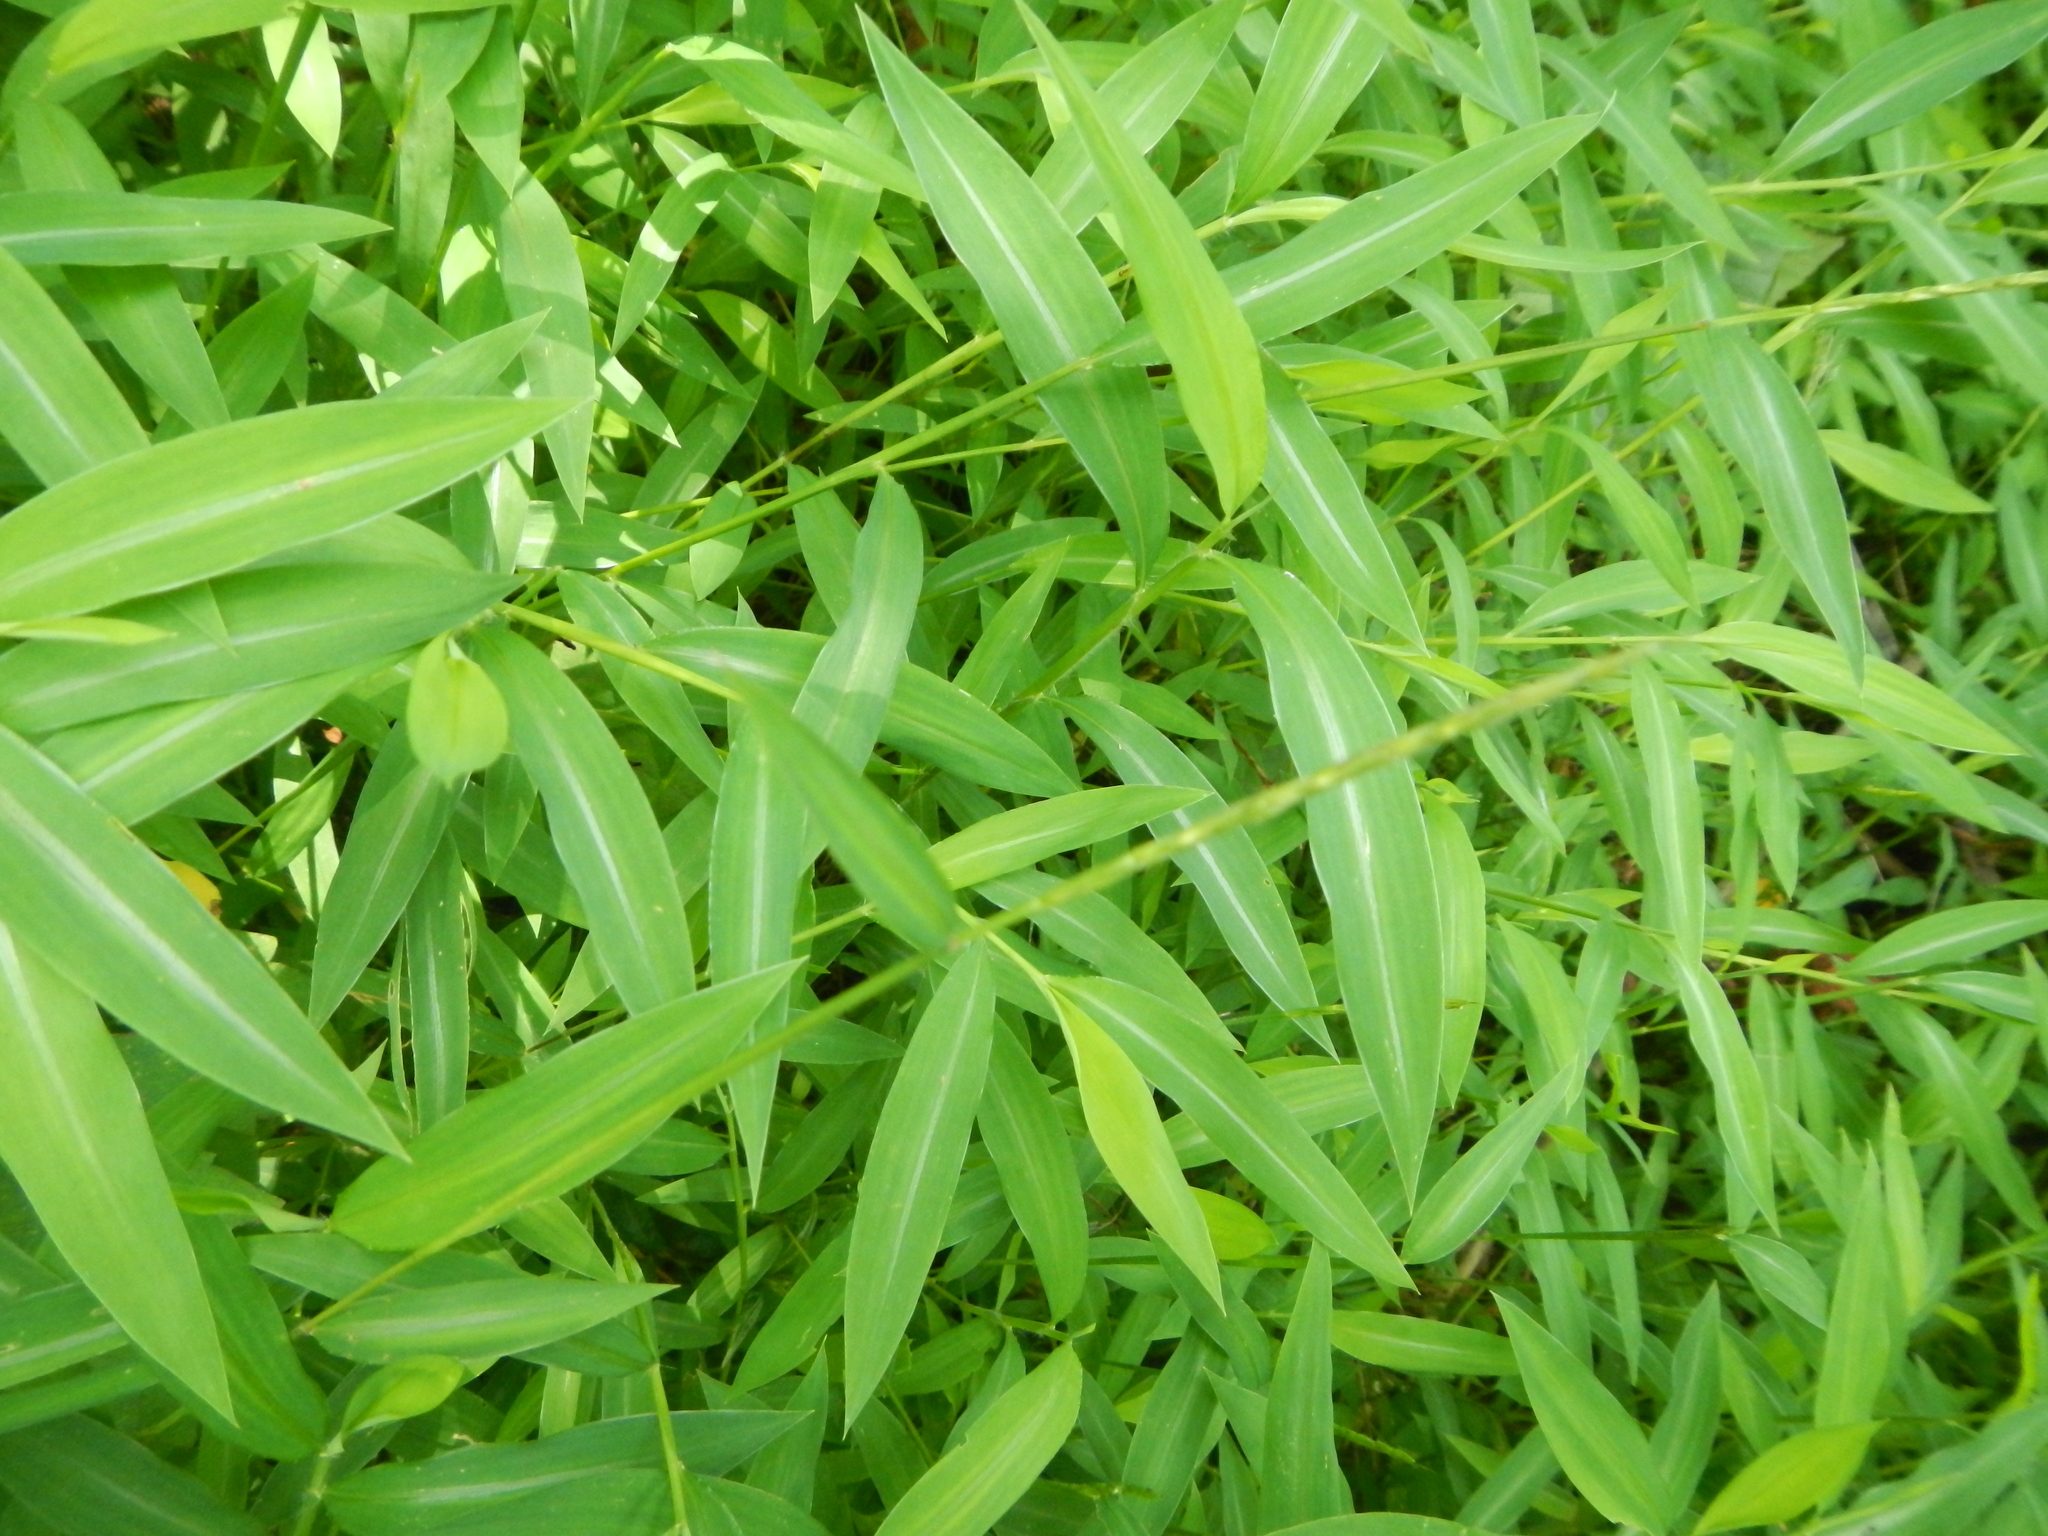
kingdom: Plantae
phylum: Tracheophyta
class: Liliopsida
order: Poales
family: Poaceae
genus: Microstegium
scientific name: Microstegium vimineum
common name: Japanese stiltgrass
